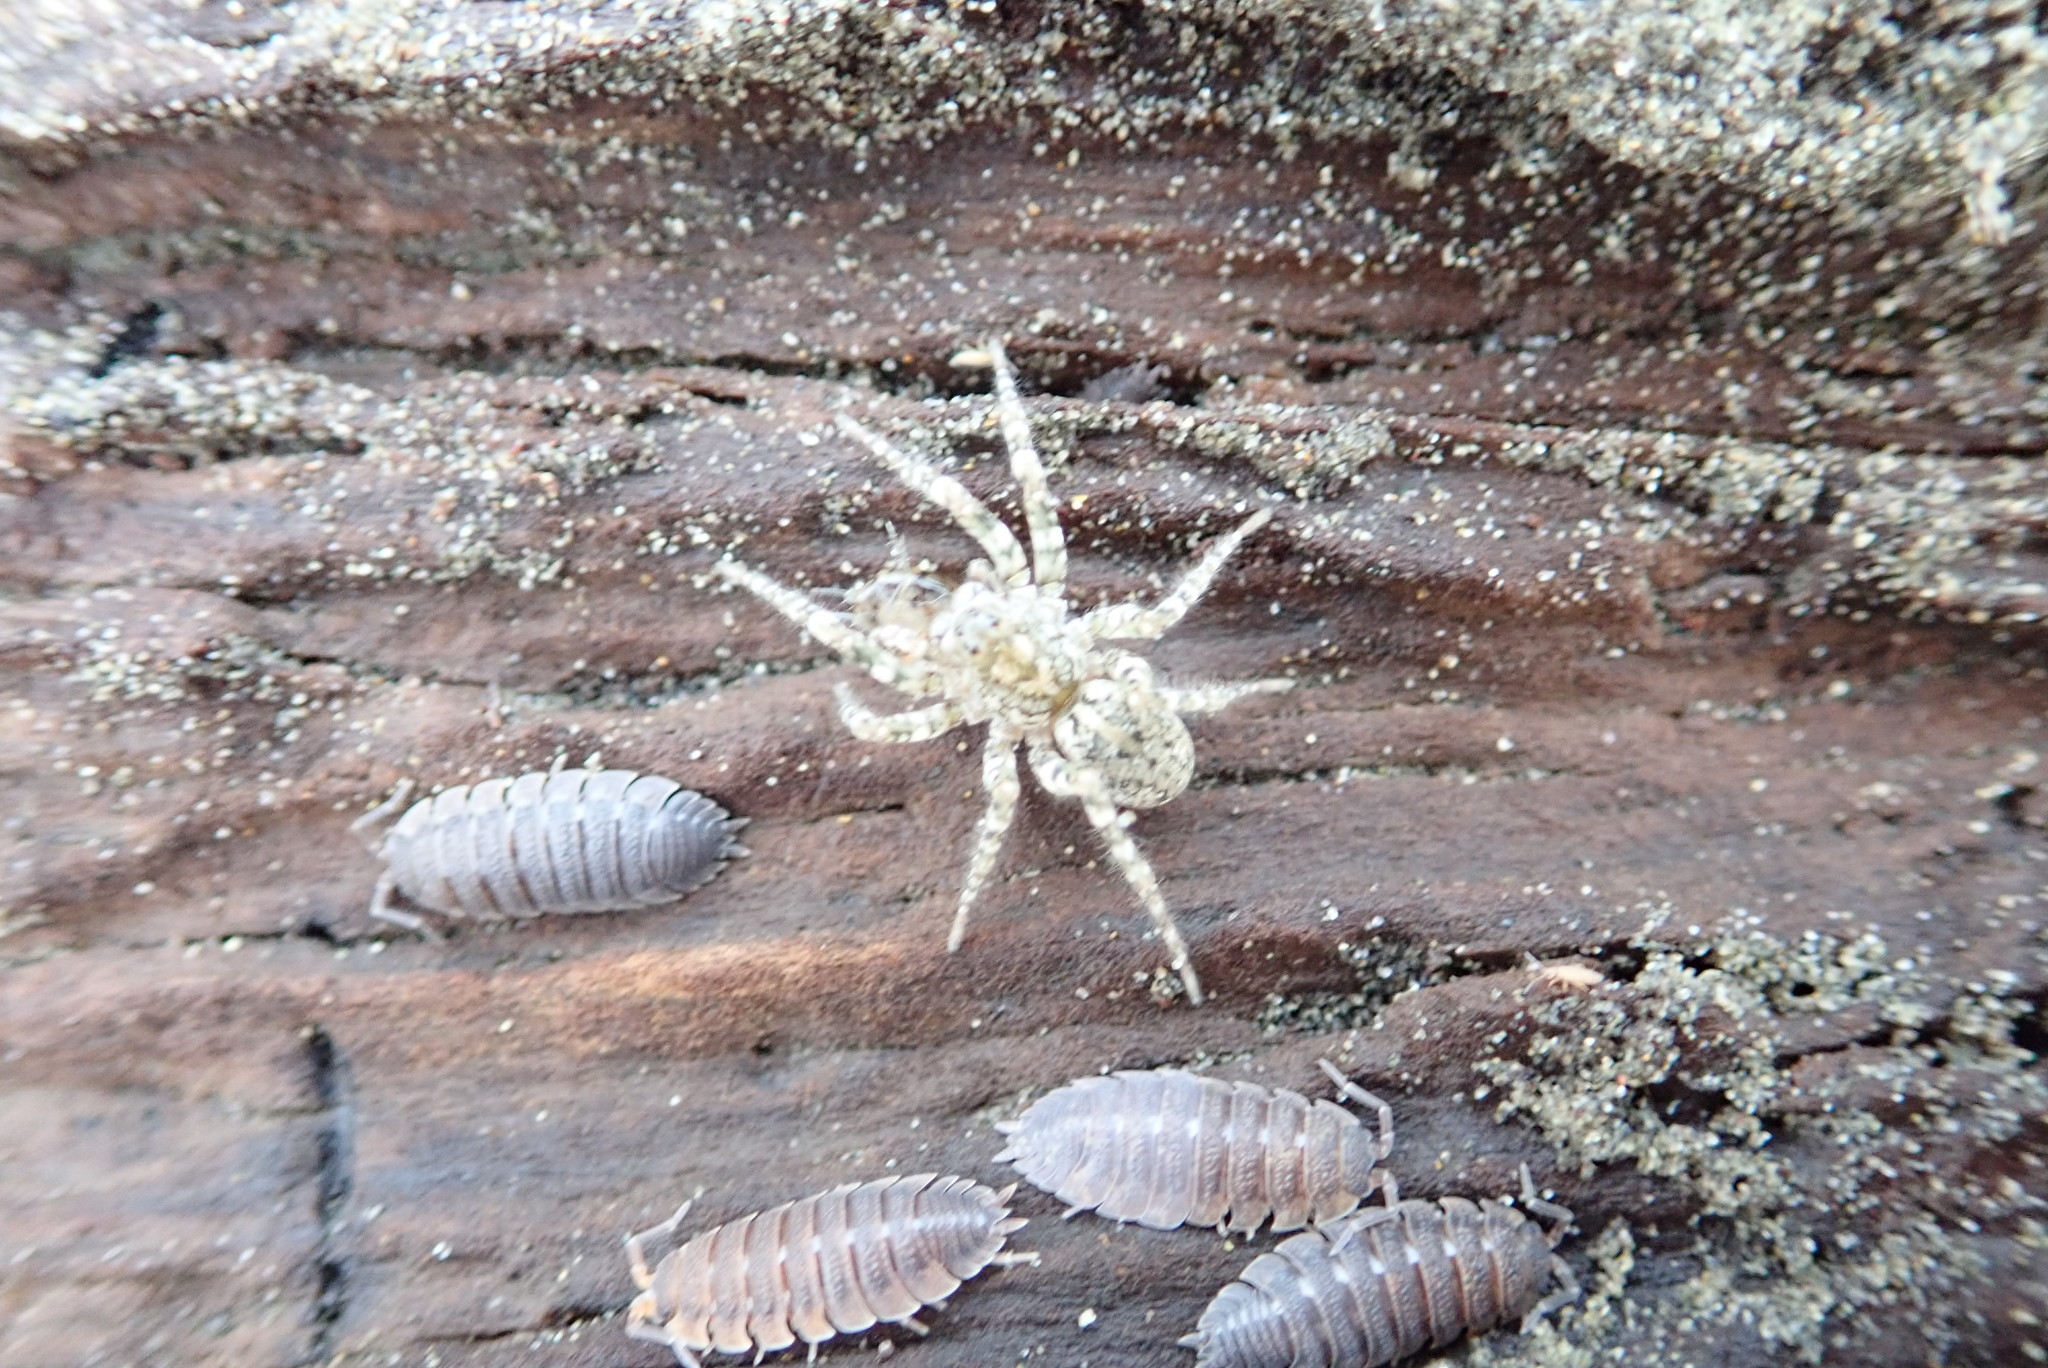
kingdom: Animalia
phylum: Arthropoda
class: Arachnida
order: Araneae
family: Lycosidae
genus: Anoteropsis
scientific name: Anoteropsis litoralis
